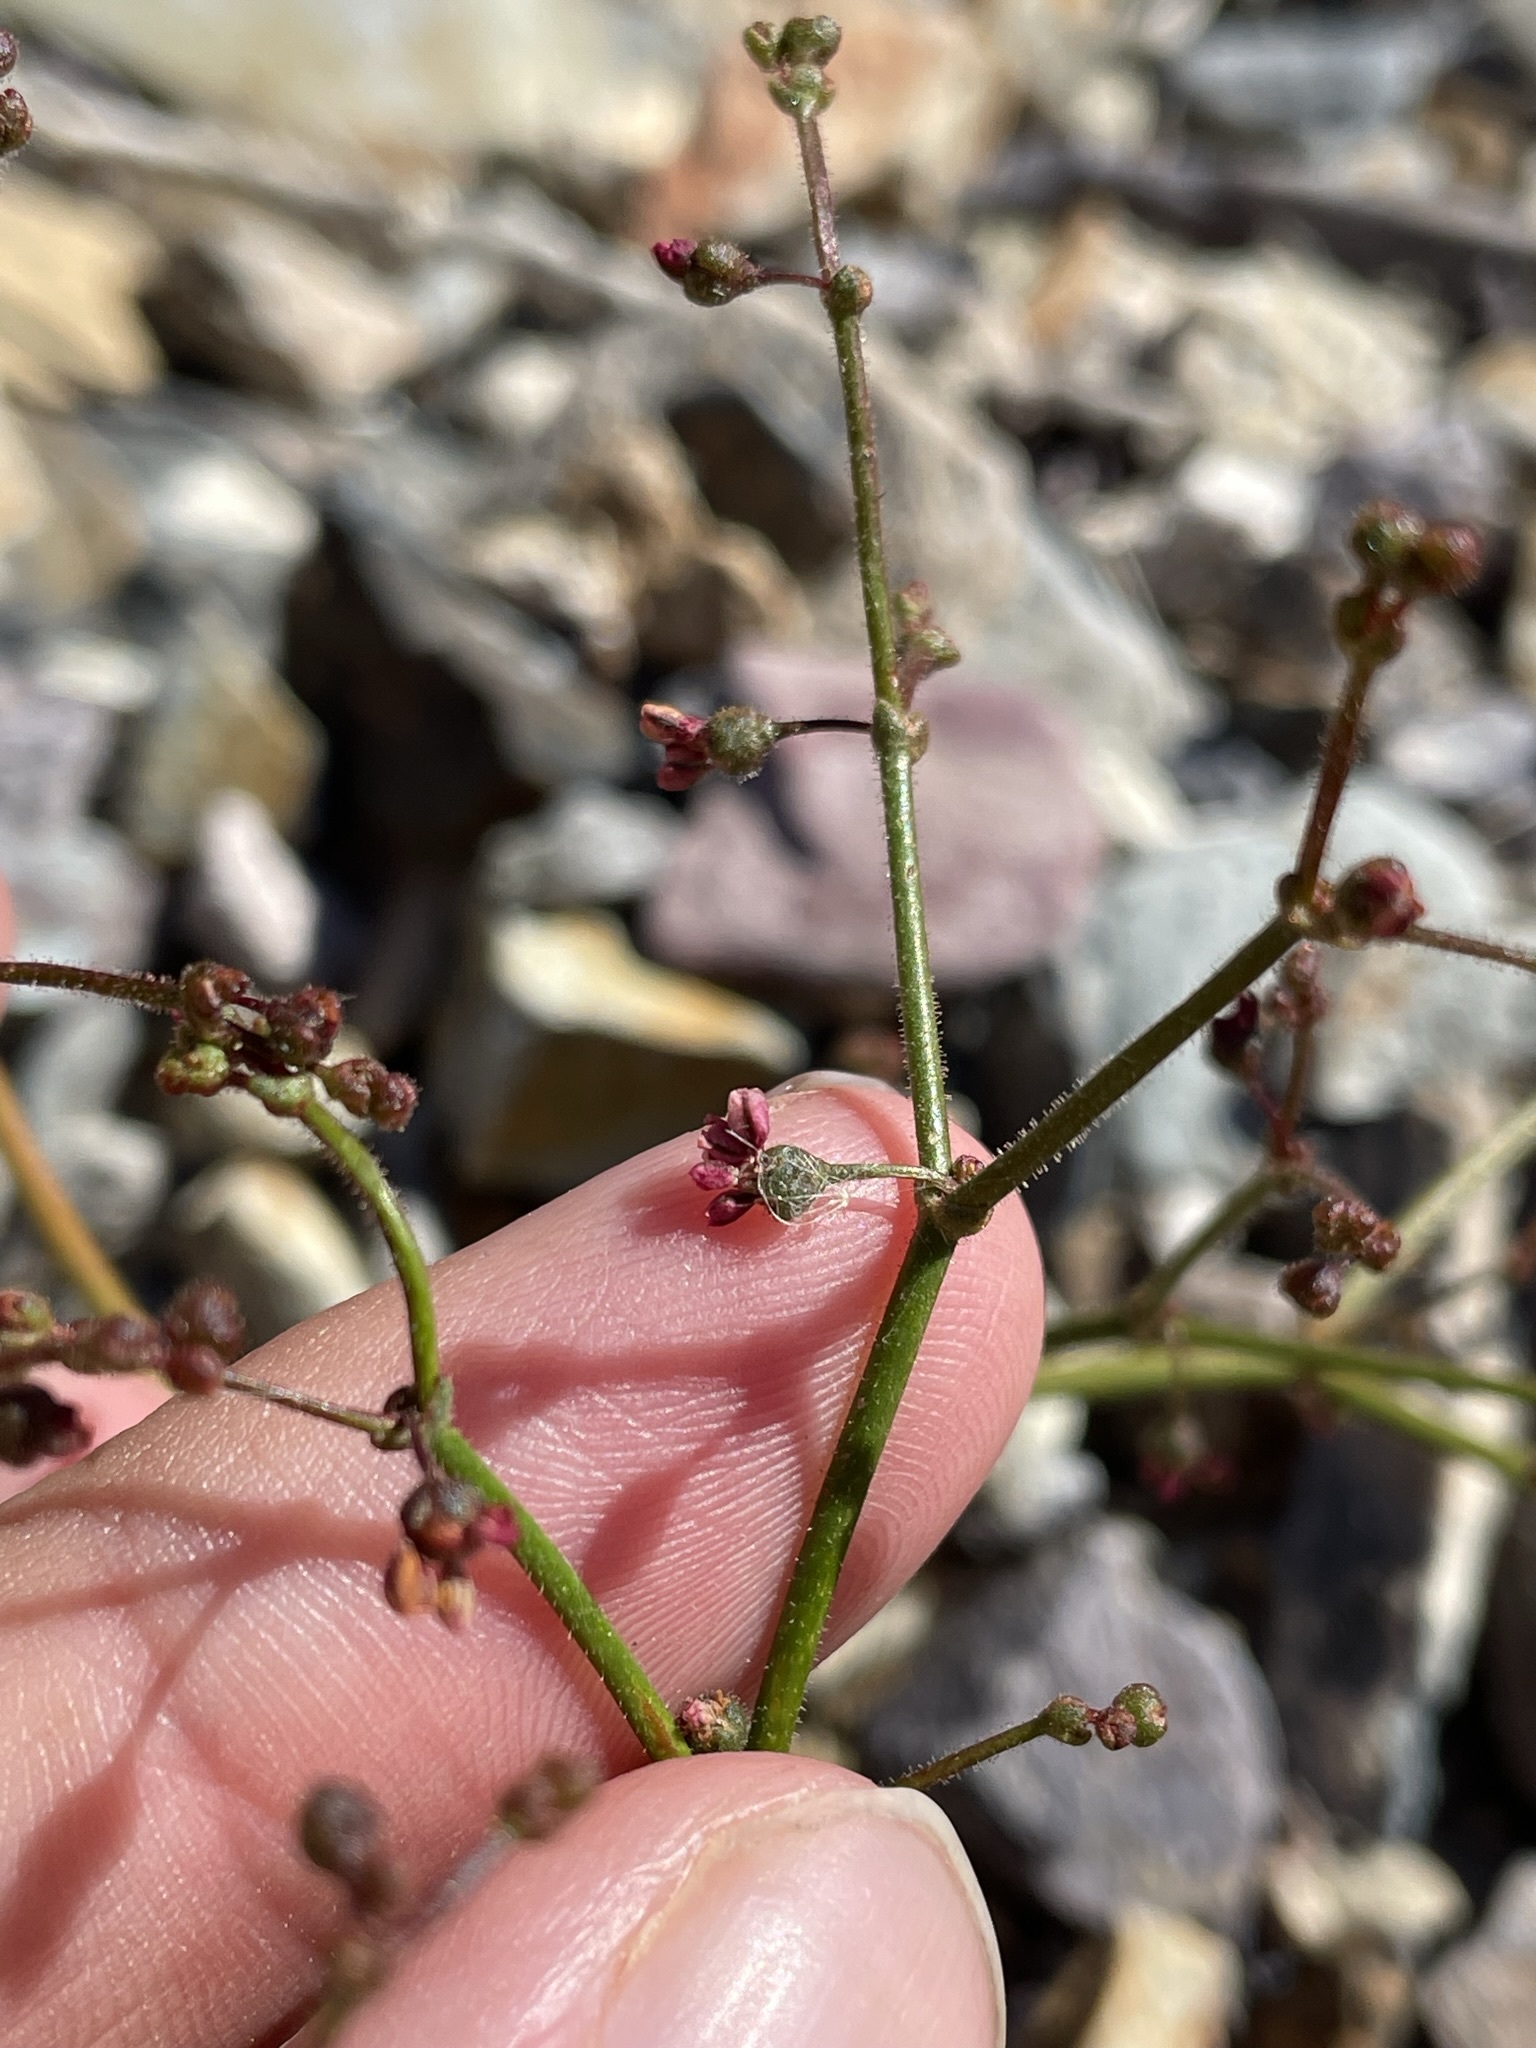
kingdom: Plantae
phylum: Tracheophyta
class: Magnoliopsida
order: Caryophyllales
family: Polygonaceae
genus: Eriogonum
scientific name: Eriogonum brachypodum
